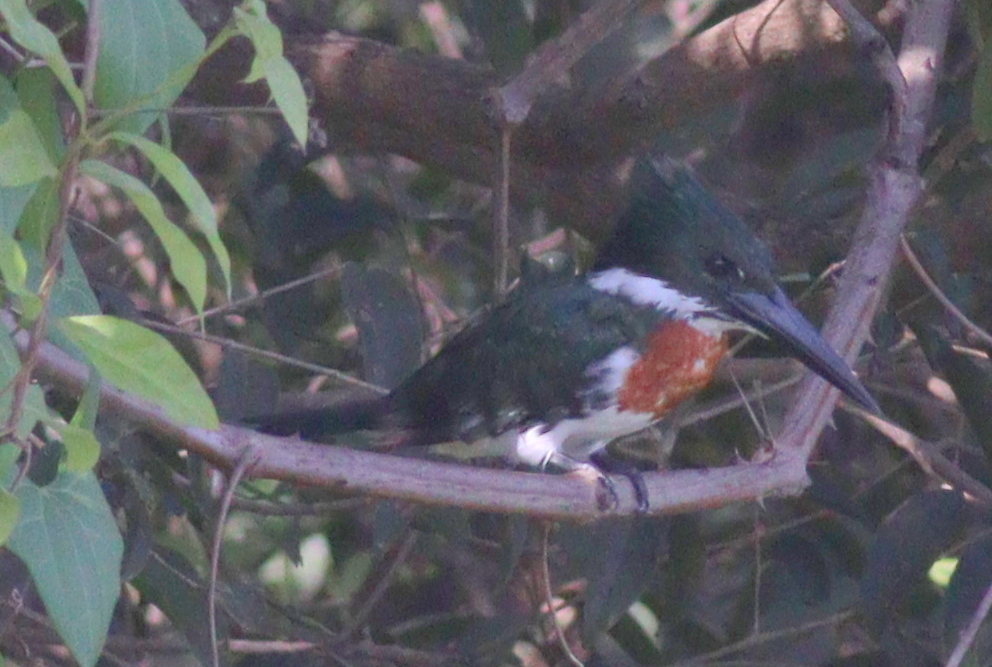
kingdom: Animalia
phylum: Chordata
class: Aves
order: Coraciiformes
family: Alcedinidae
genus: Chloroceryle
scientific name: Chloroceryle amazona
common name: Amazon kingfisher
